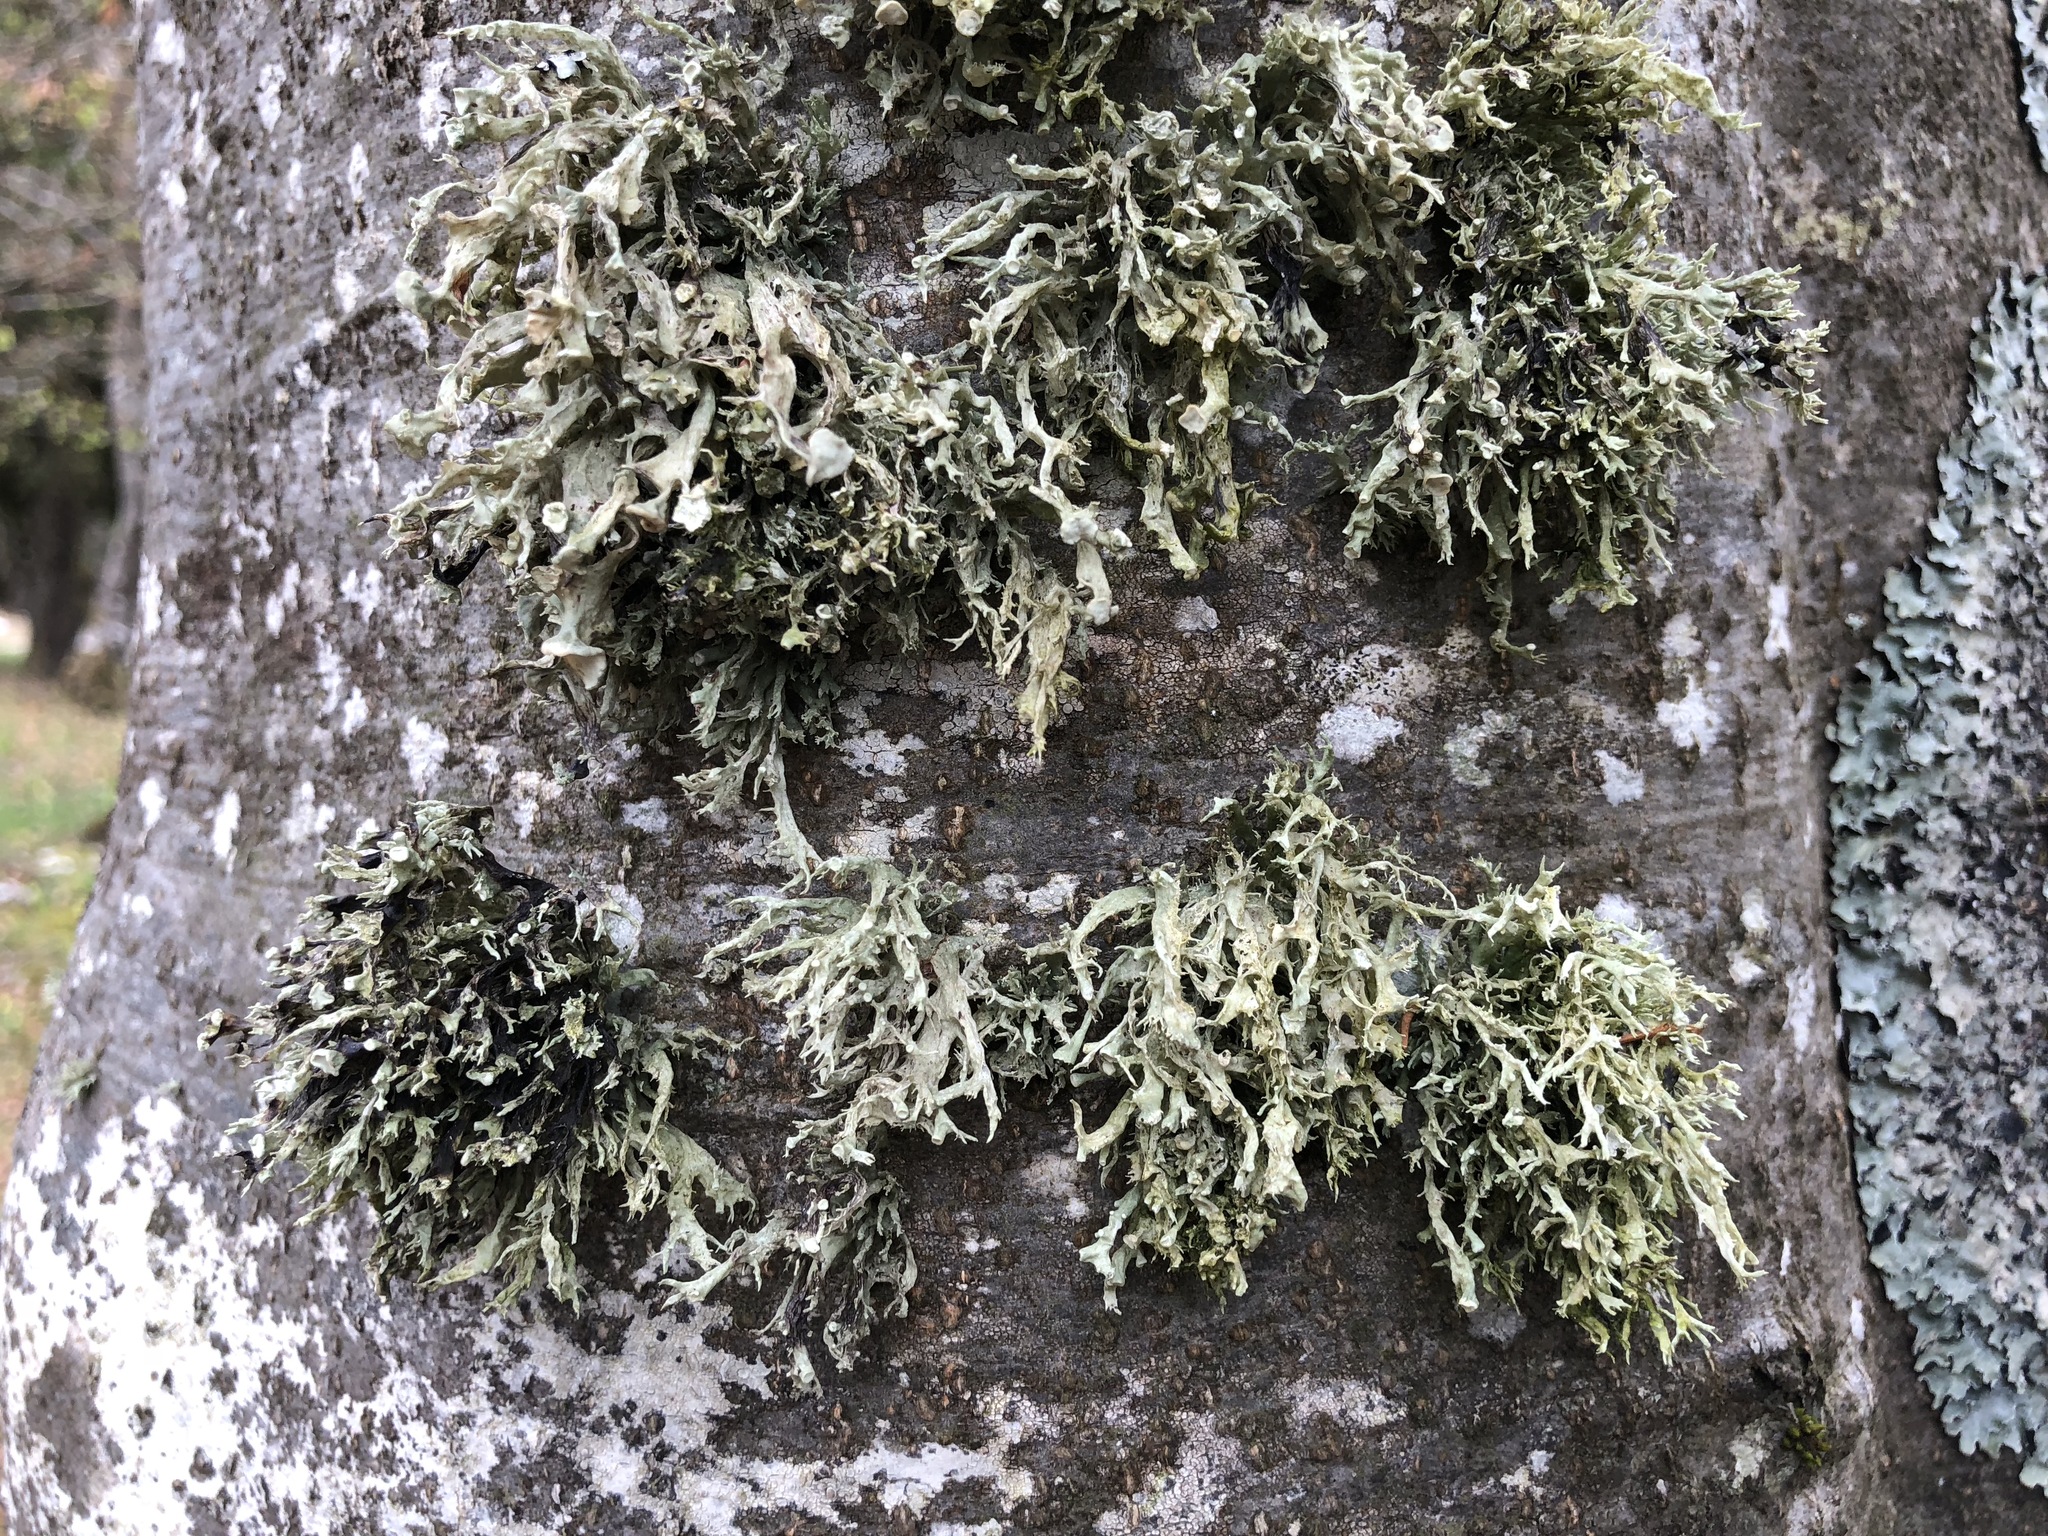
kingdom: Fungi
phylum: Ascomycota
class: Lecanoromycetes
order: Lecanorales
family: Ramalinaceae
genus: Ramalina
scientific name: Ramalina fraxinea
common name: Cartilage lichen
